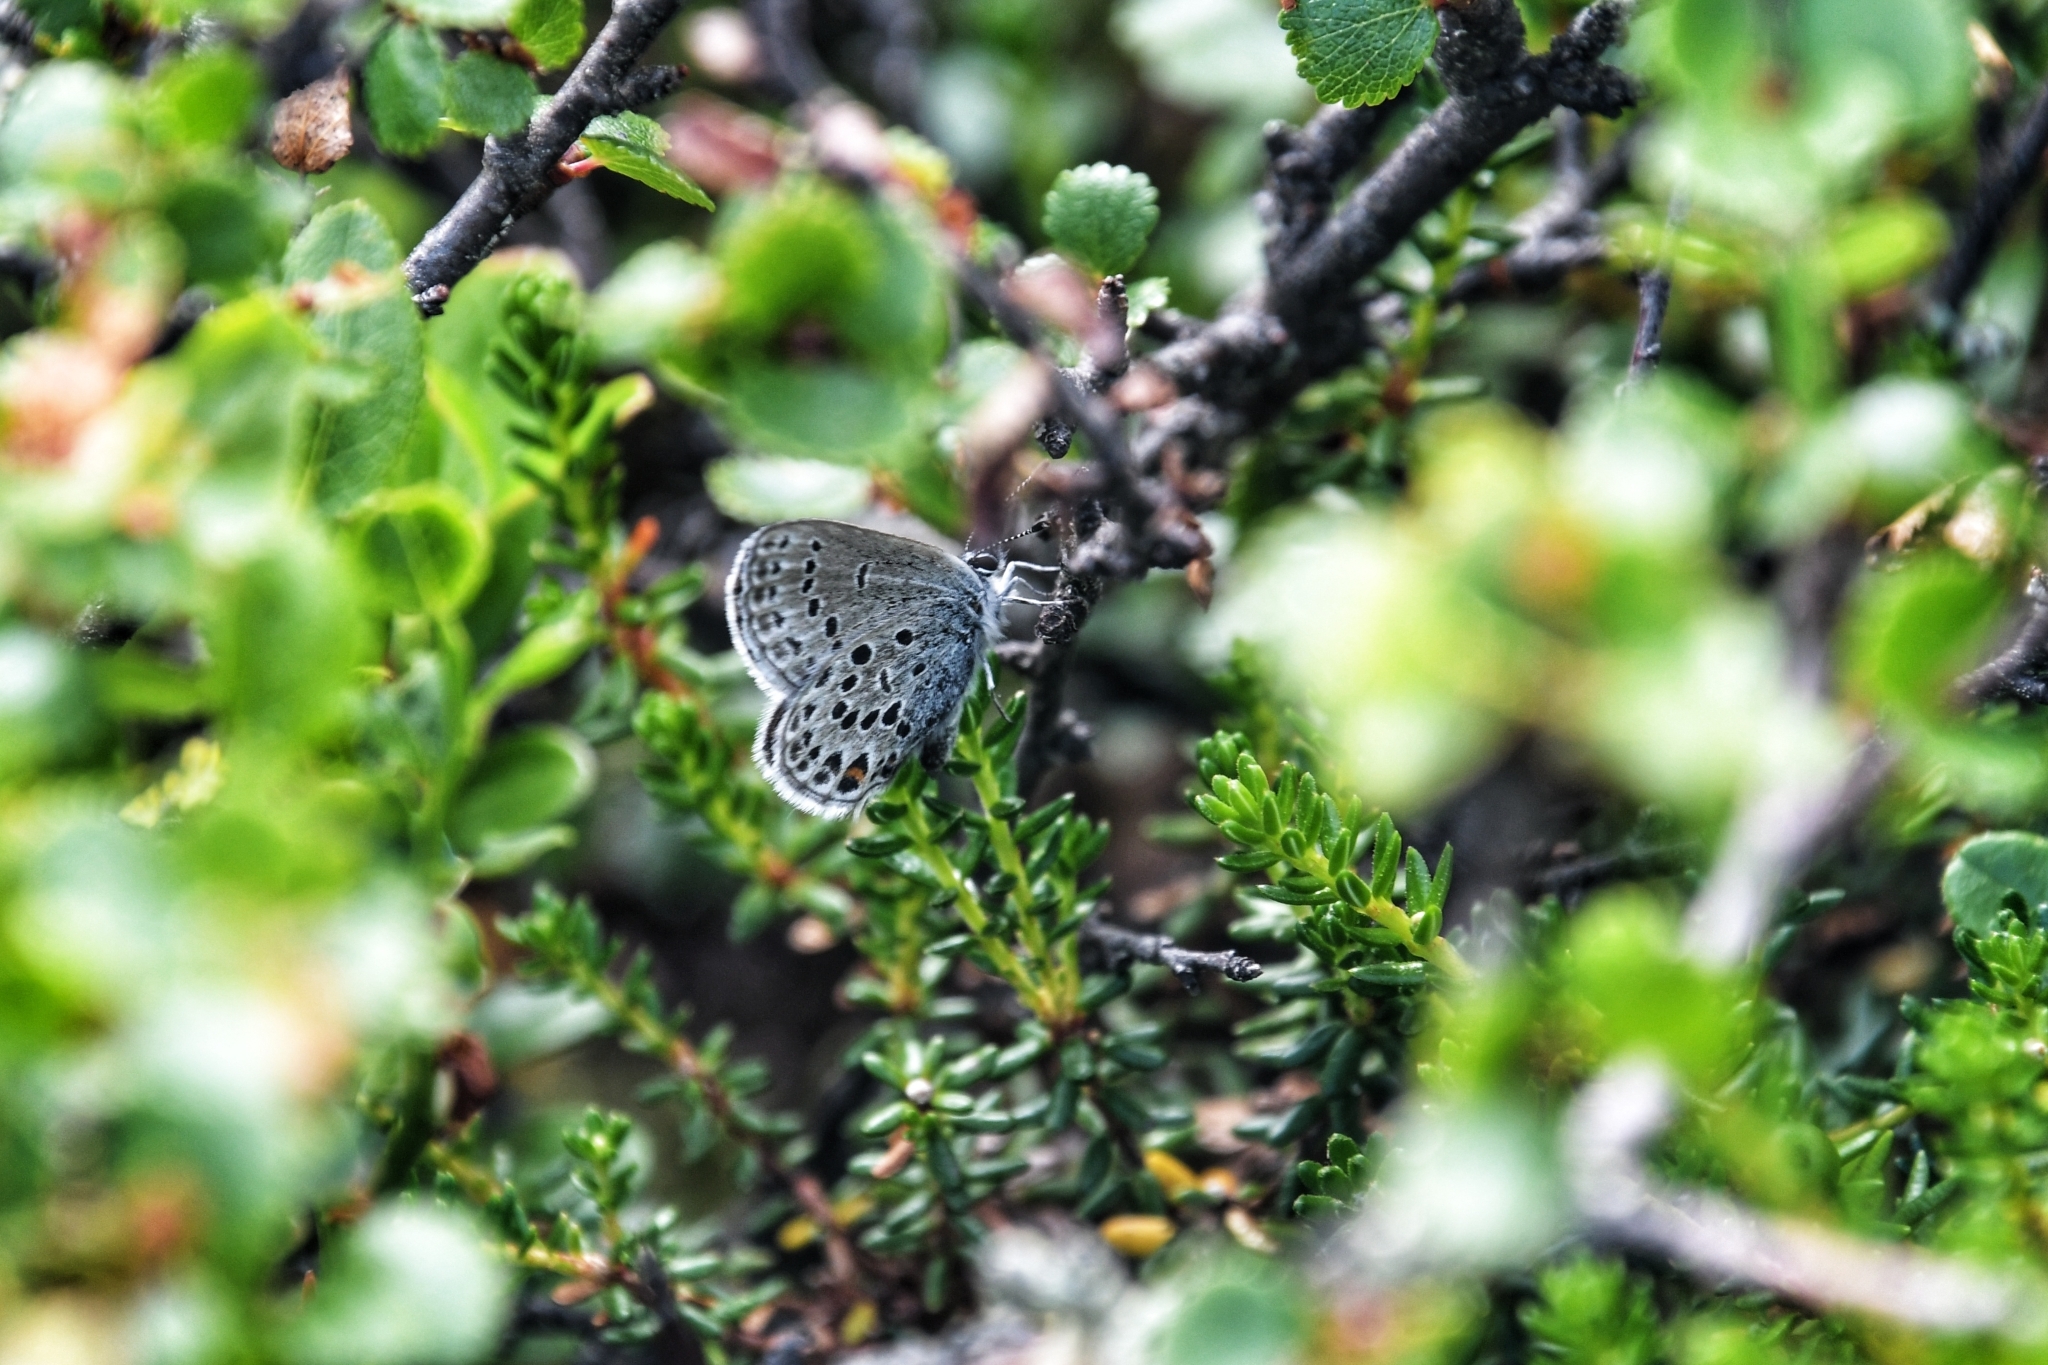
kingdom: Animalia
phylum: Arthropoda
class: Insecta
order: Lepidoptera
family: Lycaenidae
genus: Vacciniina
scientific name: Vacciniina optilete
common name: Cranberry blue
